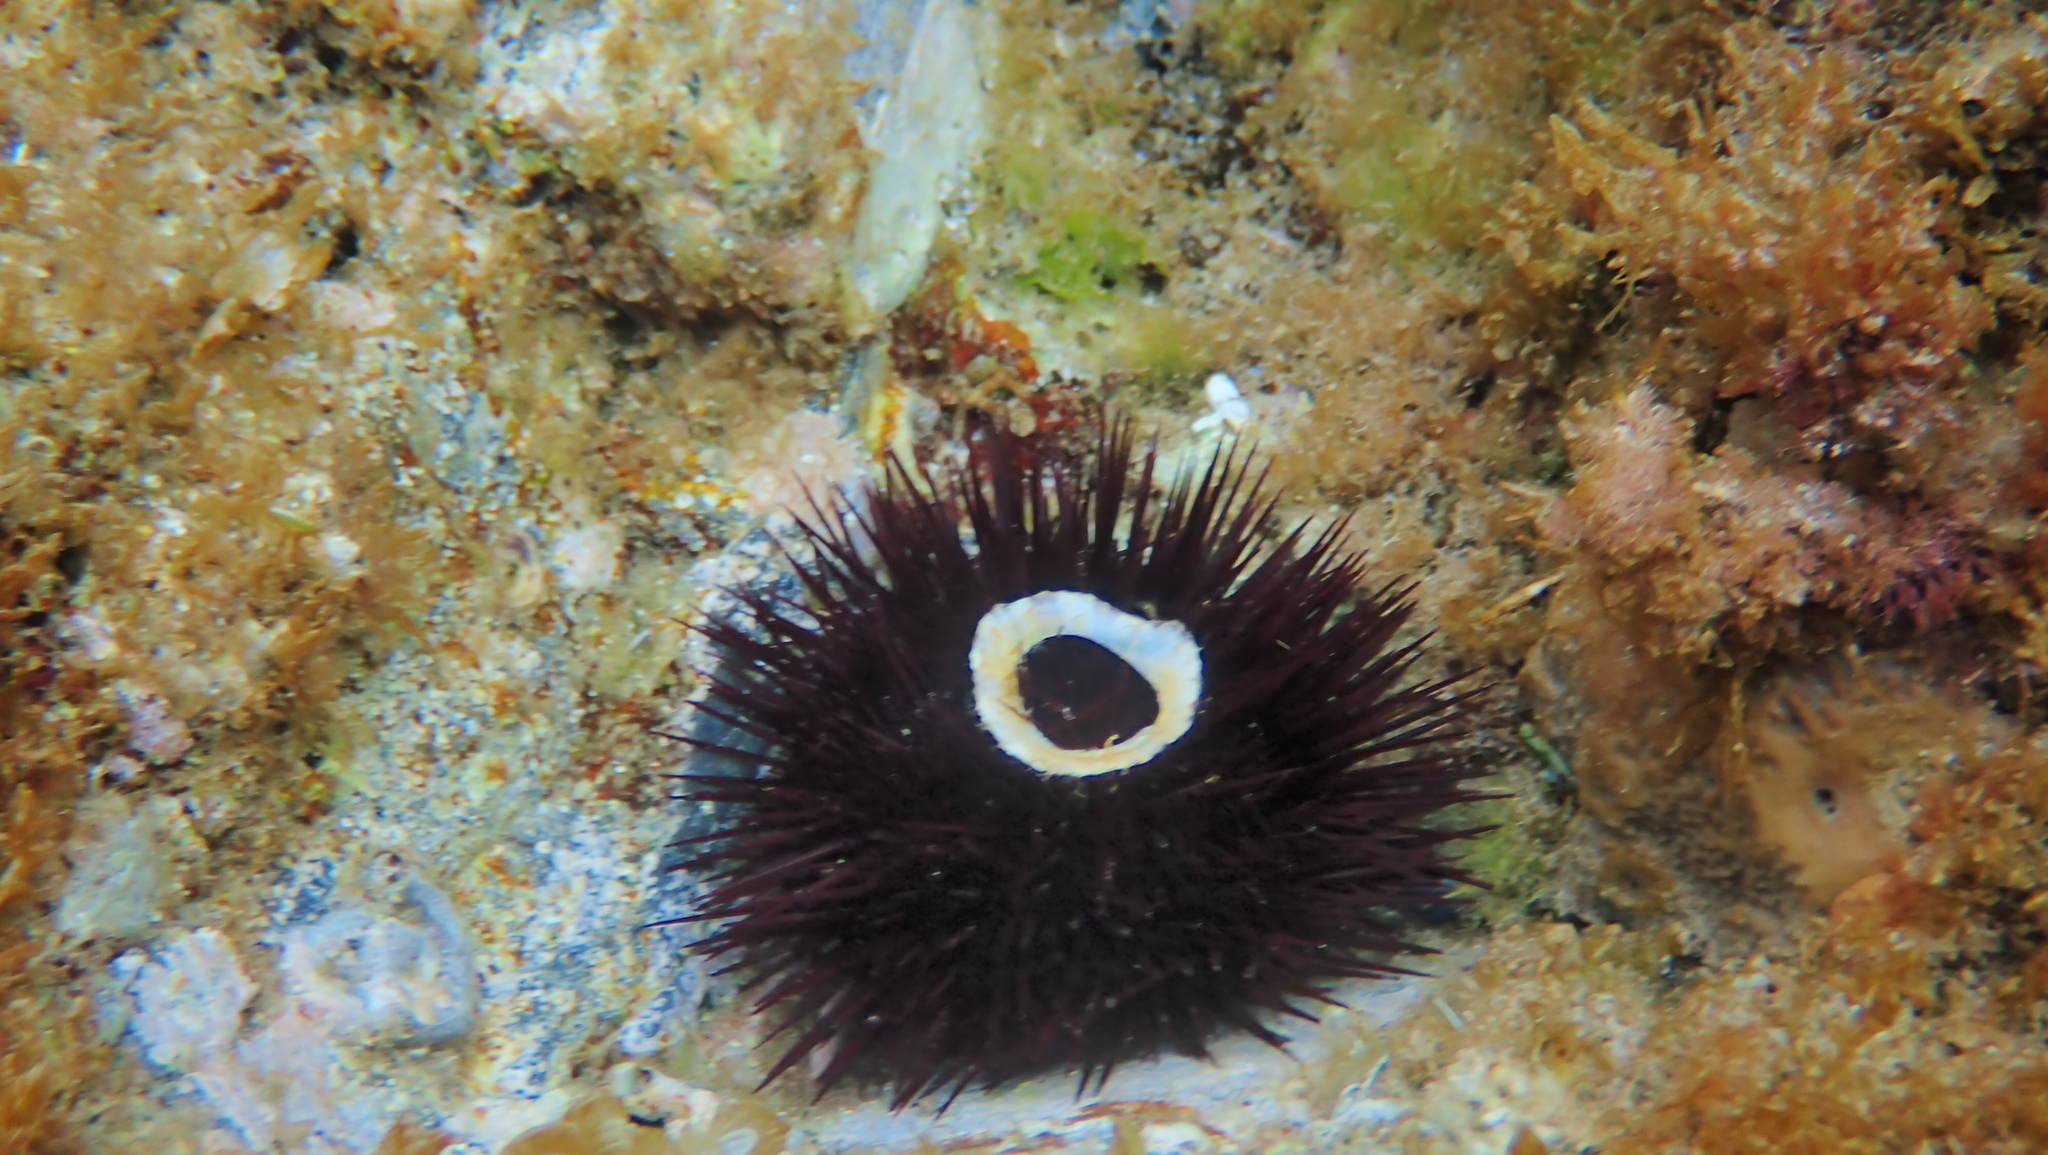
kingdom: Animalia
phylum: Echinodermata
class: Echinoidea
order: Camarodonta
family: Parechinidae
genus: Paracentrotus
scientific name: Paracentrotus lividus
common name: Purple sea urchin
